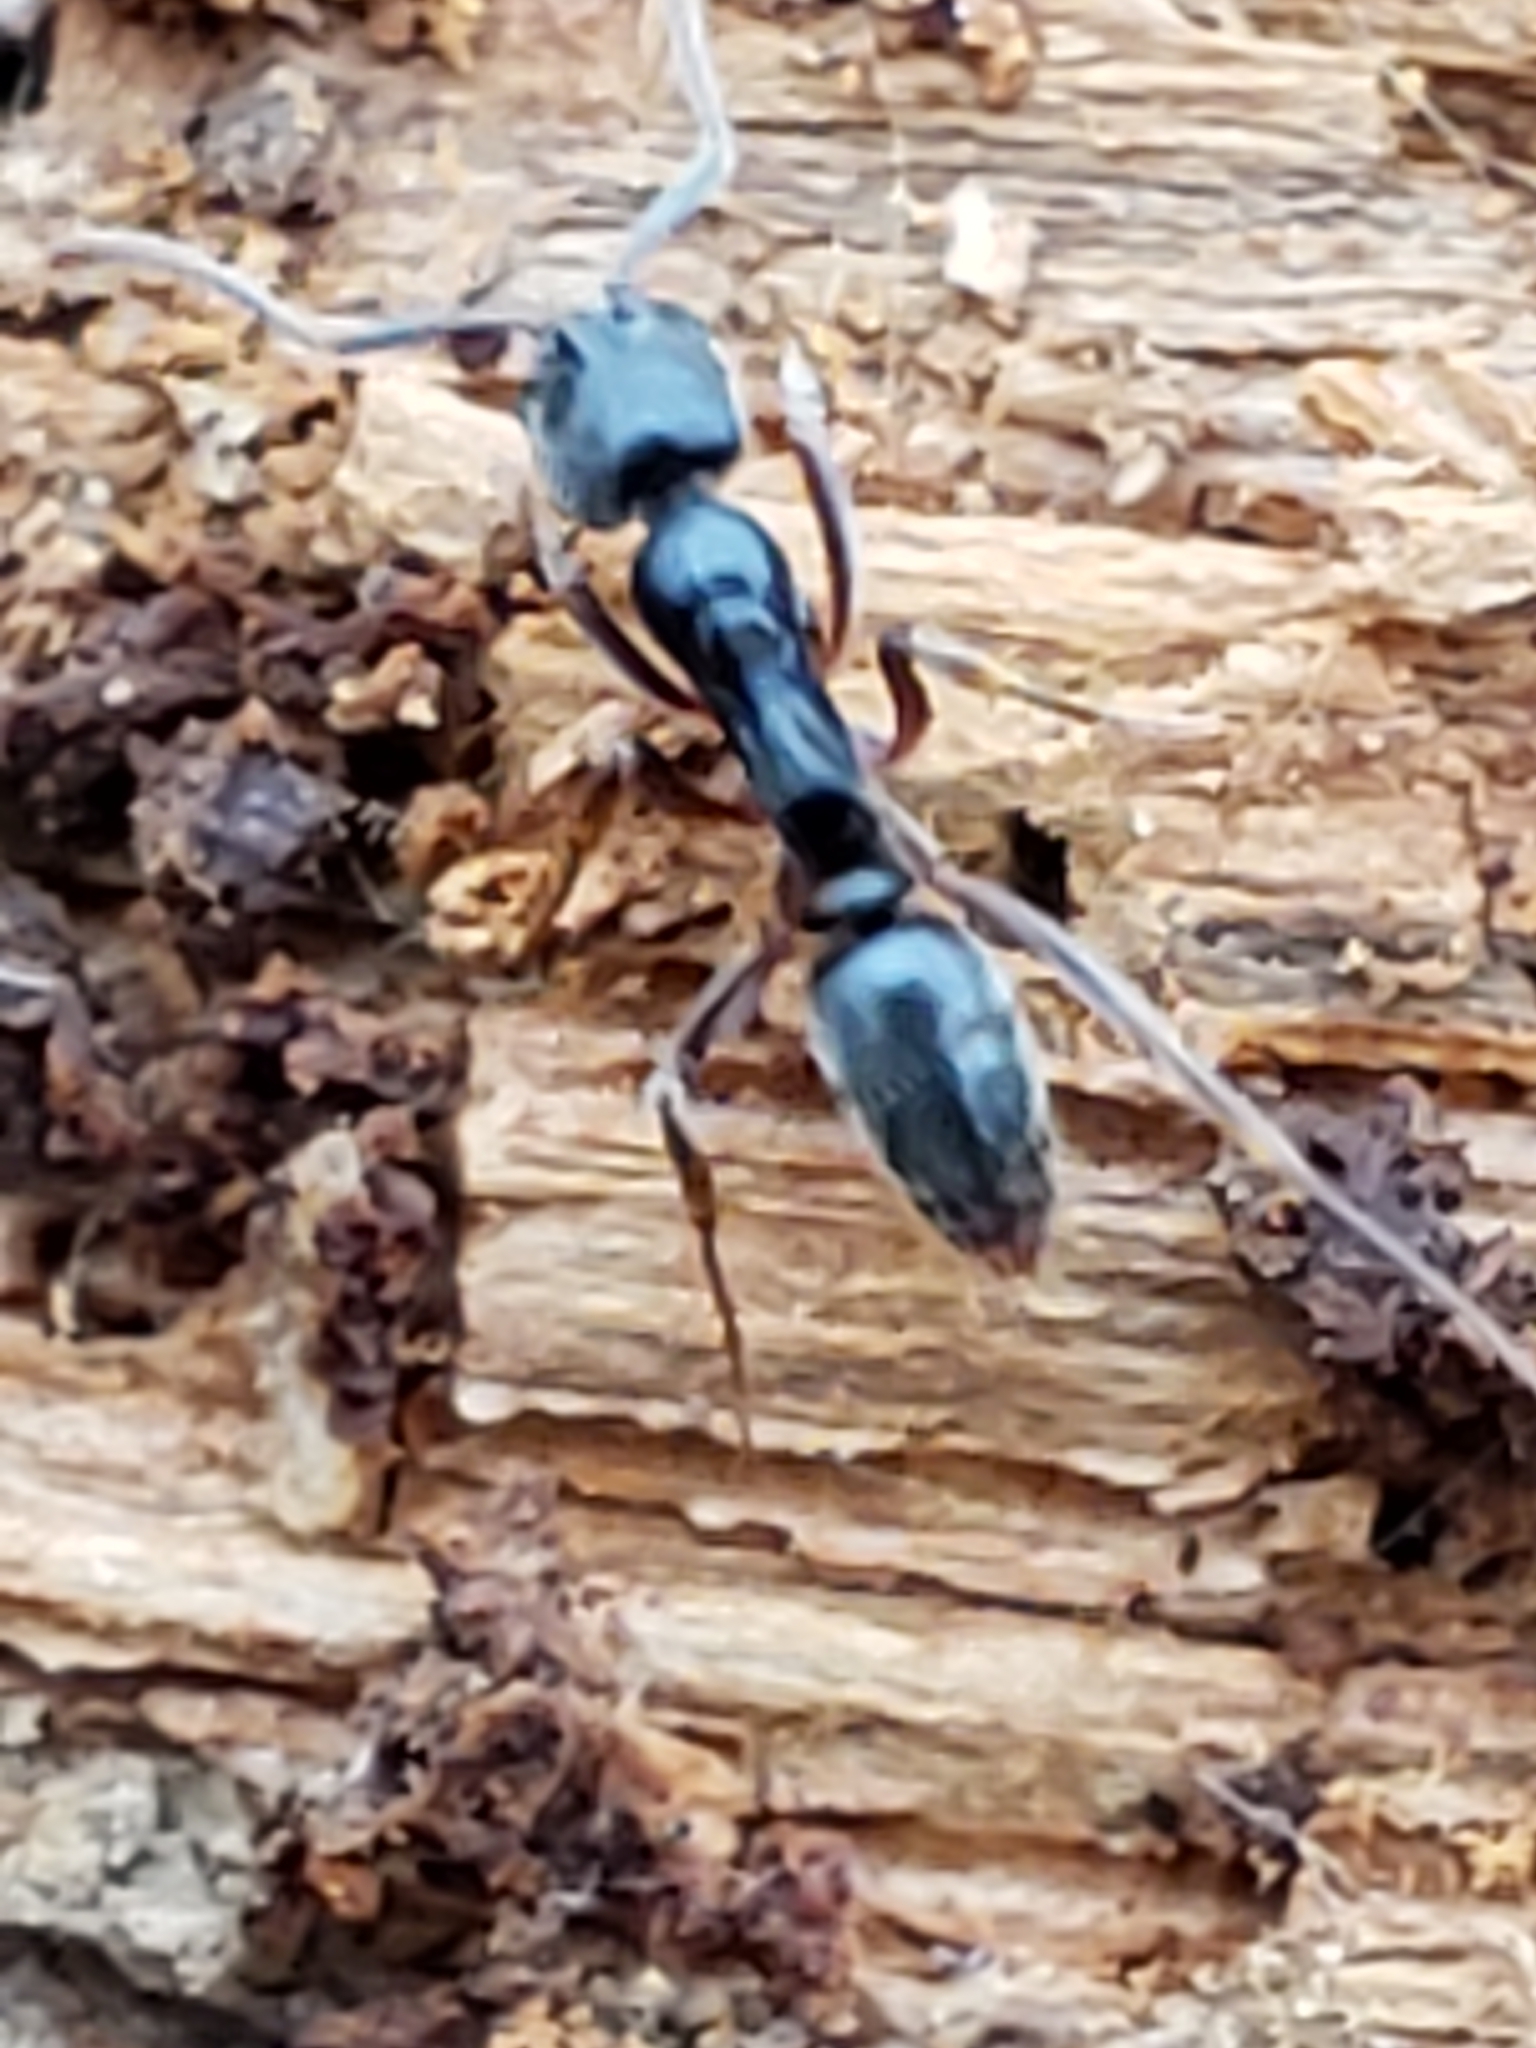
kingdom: Animalia
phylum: Arthropoda
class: Insecta
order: Hymenoptera
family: Formicidae
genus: Pachycondyla
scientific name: Pachycondyla chinensis
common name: Asian needle ant
